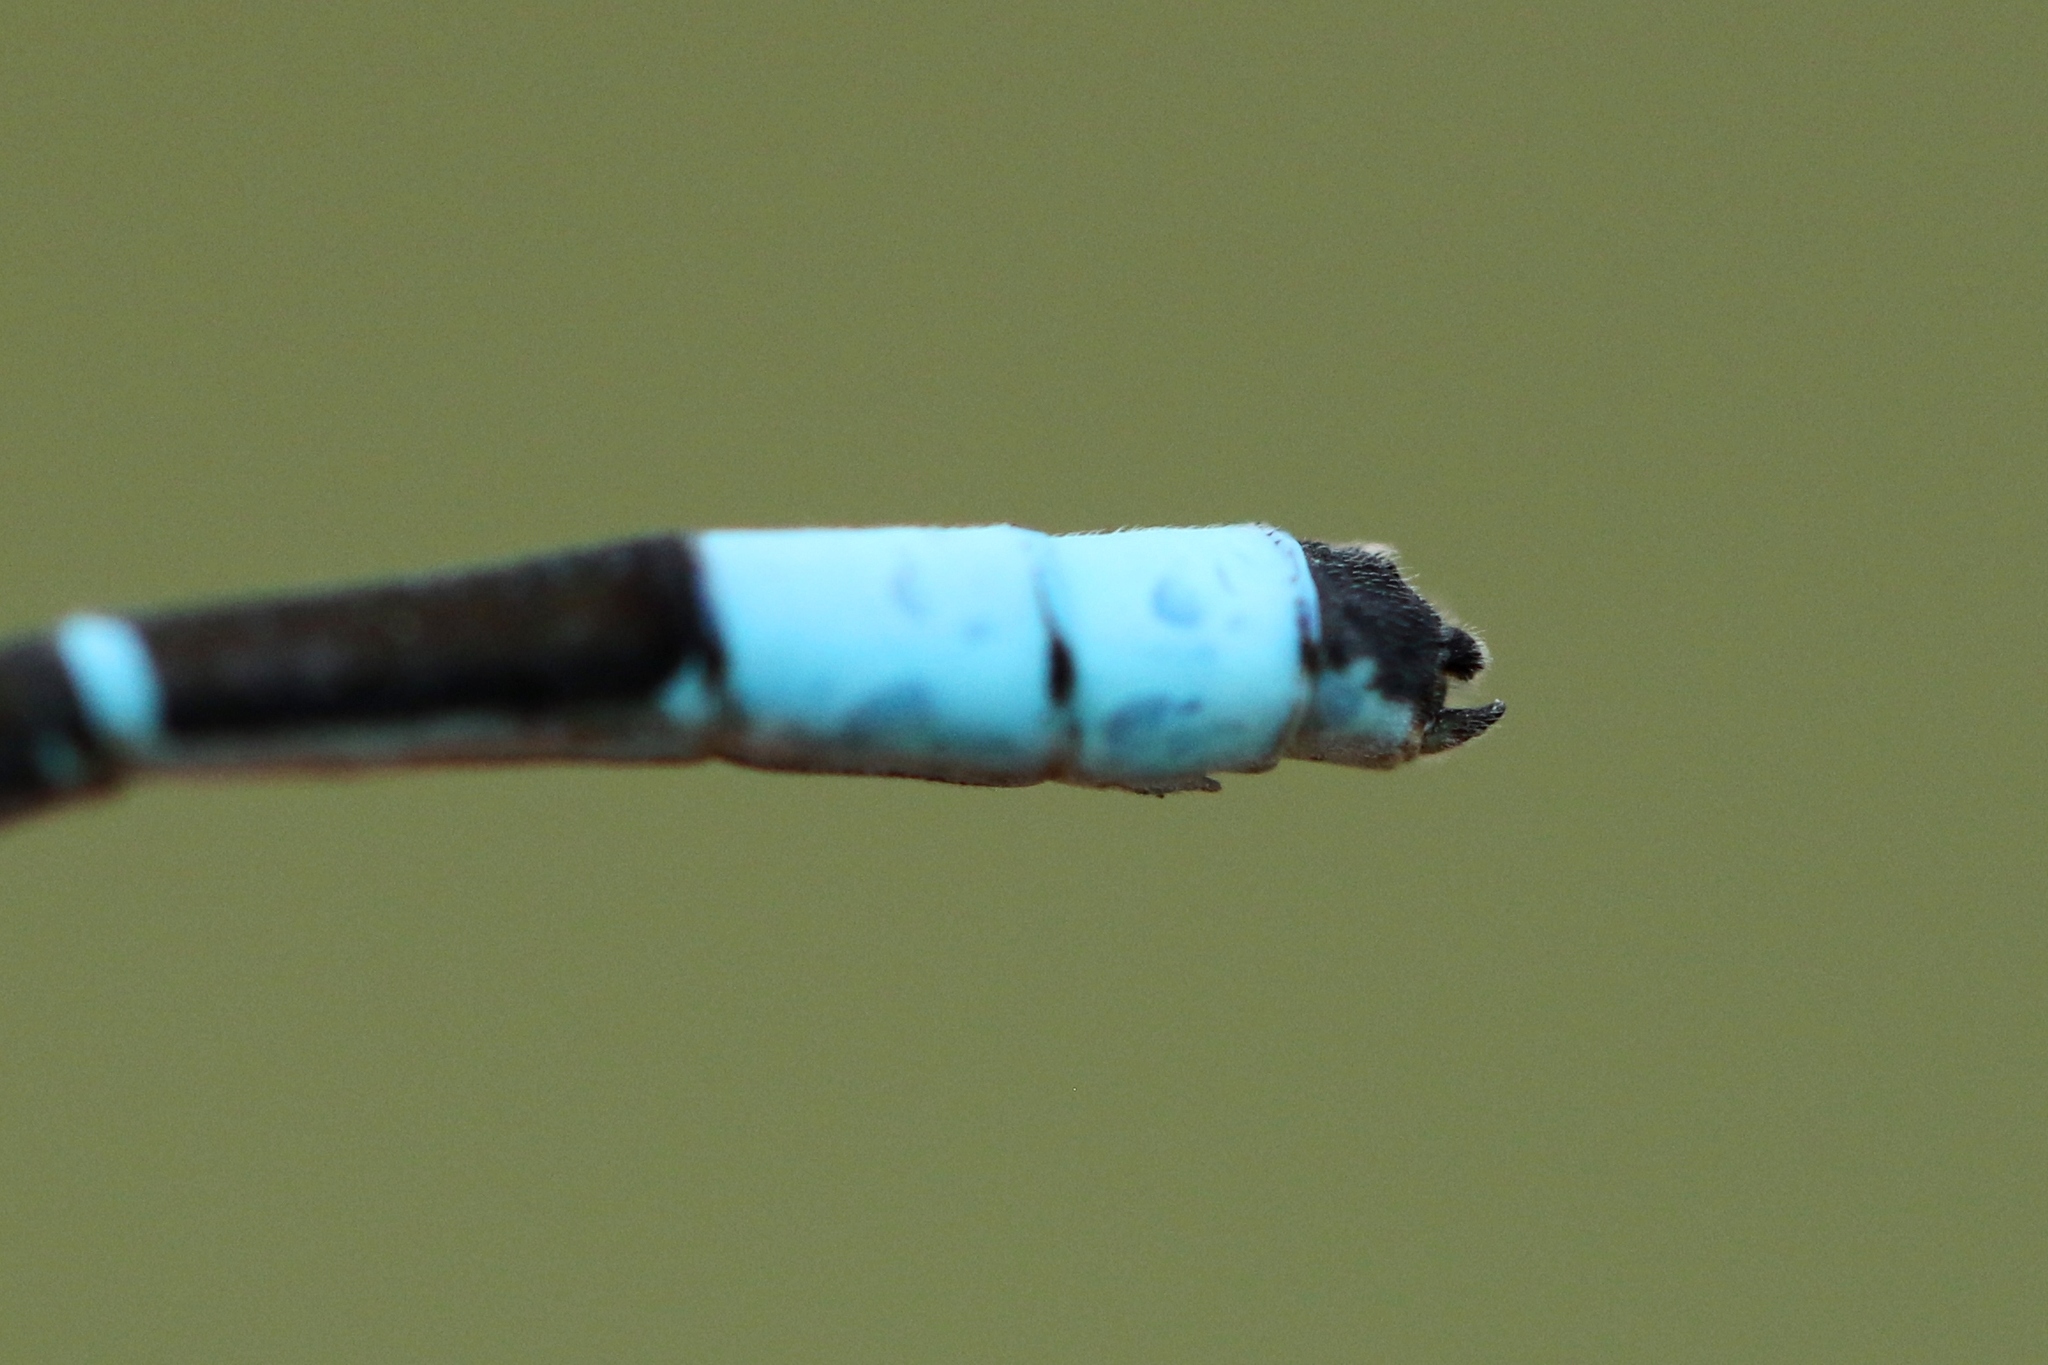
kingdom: Animalia
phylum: Arthropoda
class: Insecta
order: Odonata
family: Coenagrionidae
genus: Enallagma
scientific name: Enallagma boreale
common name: Boreal bluet
